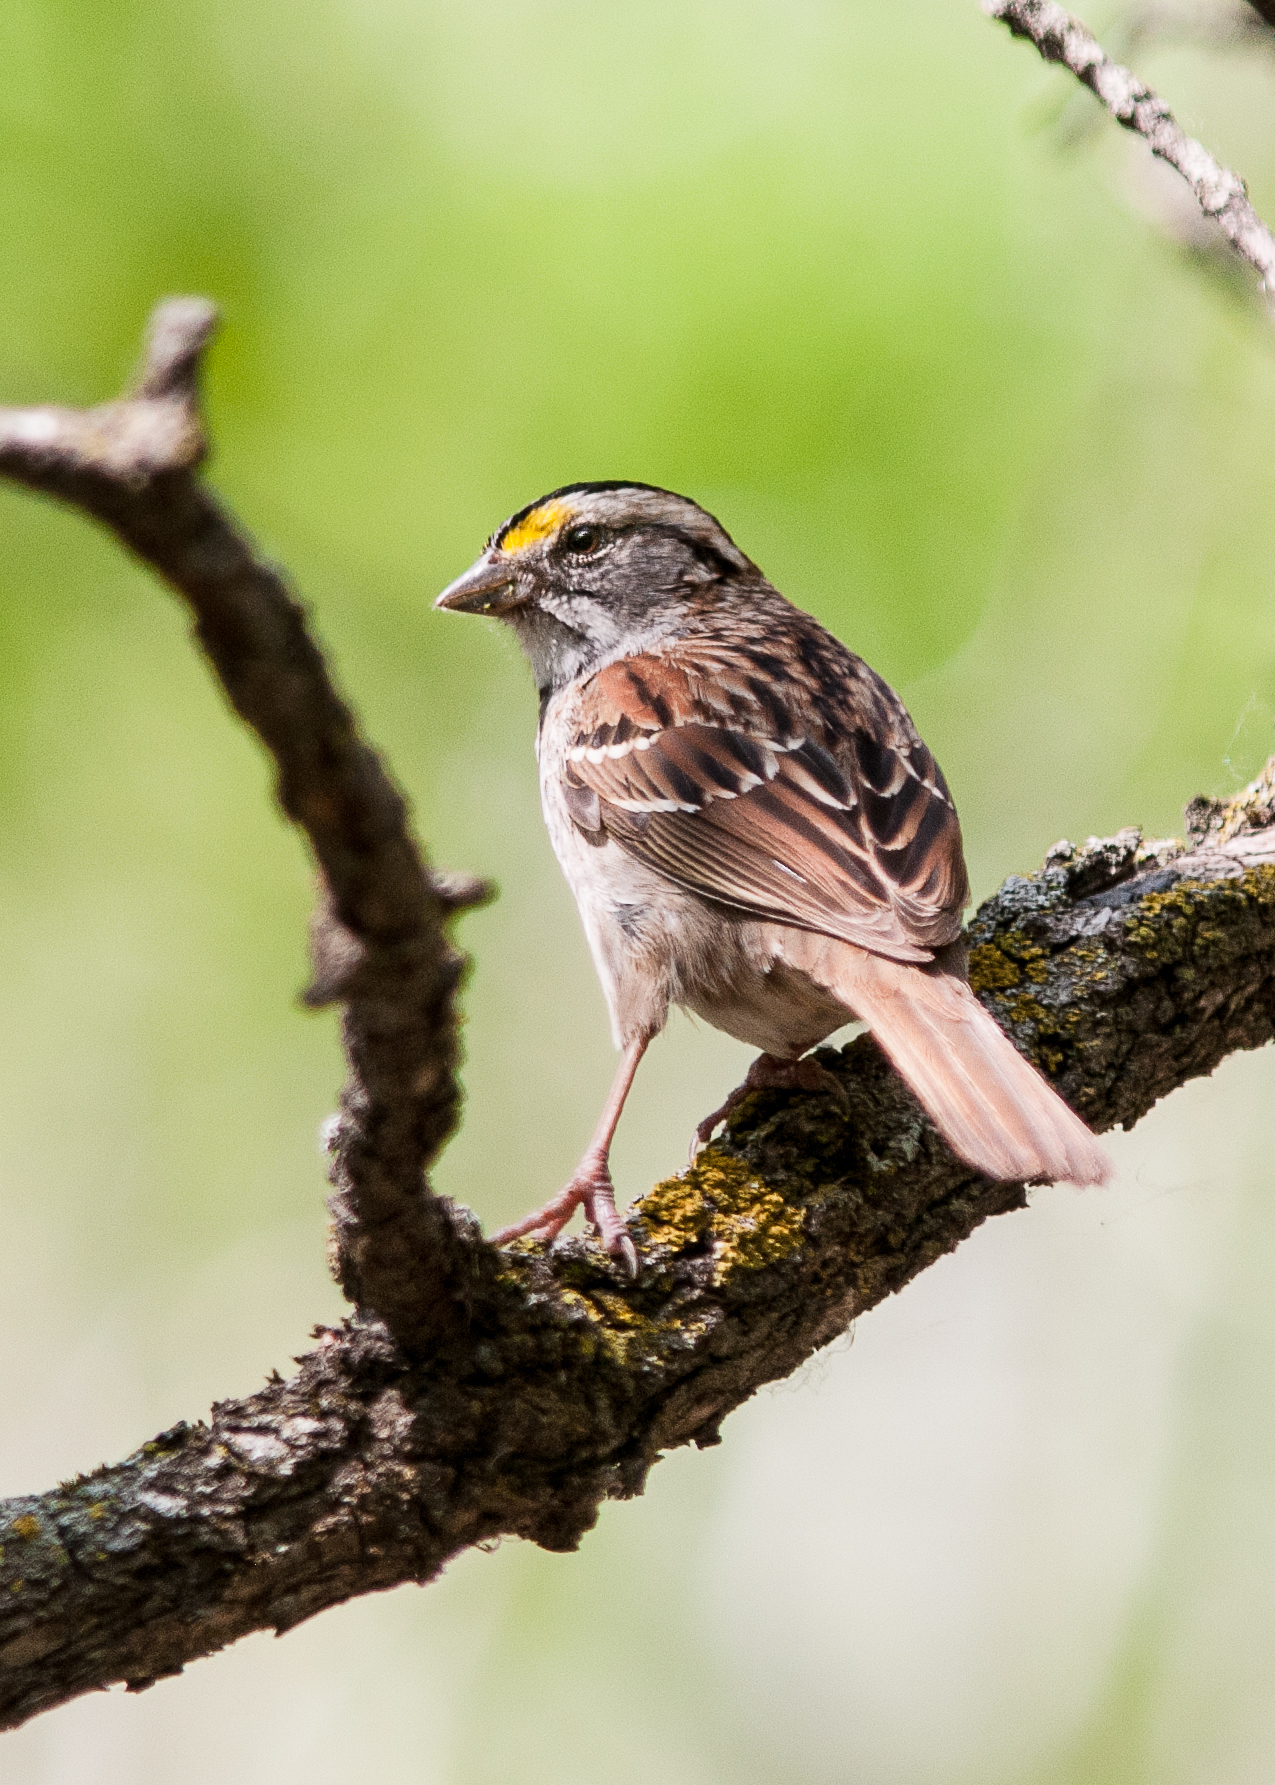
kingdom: Animalia
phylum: Chordata
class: Aves
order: Passeriformes
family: Passerellidae
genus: Zonotrichia
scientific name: Zonotrichia albicollis
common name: White-throated sparrow
